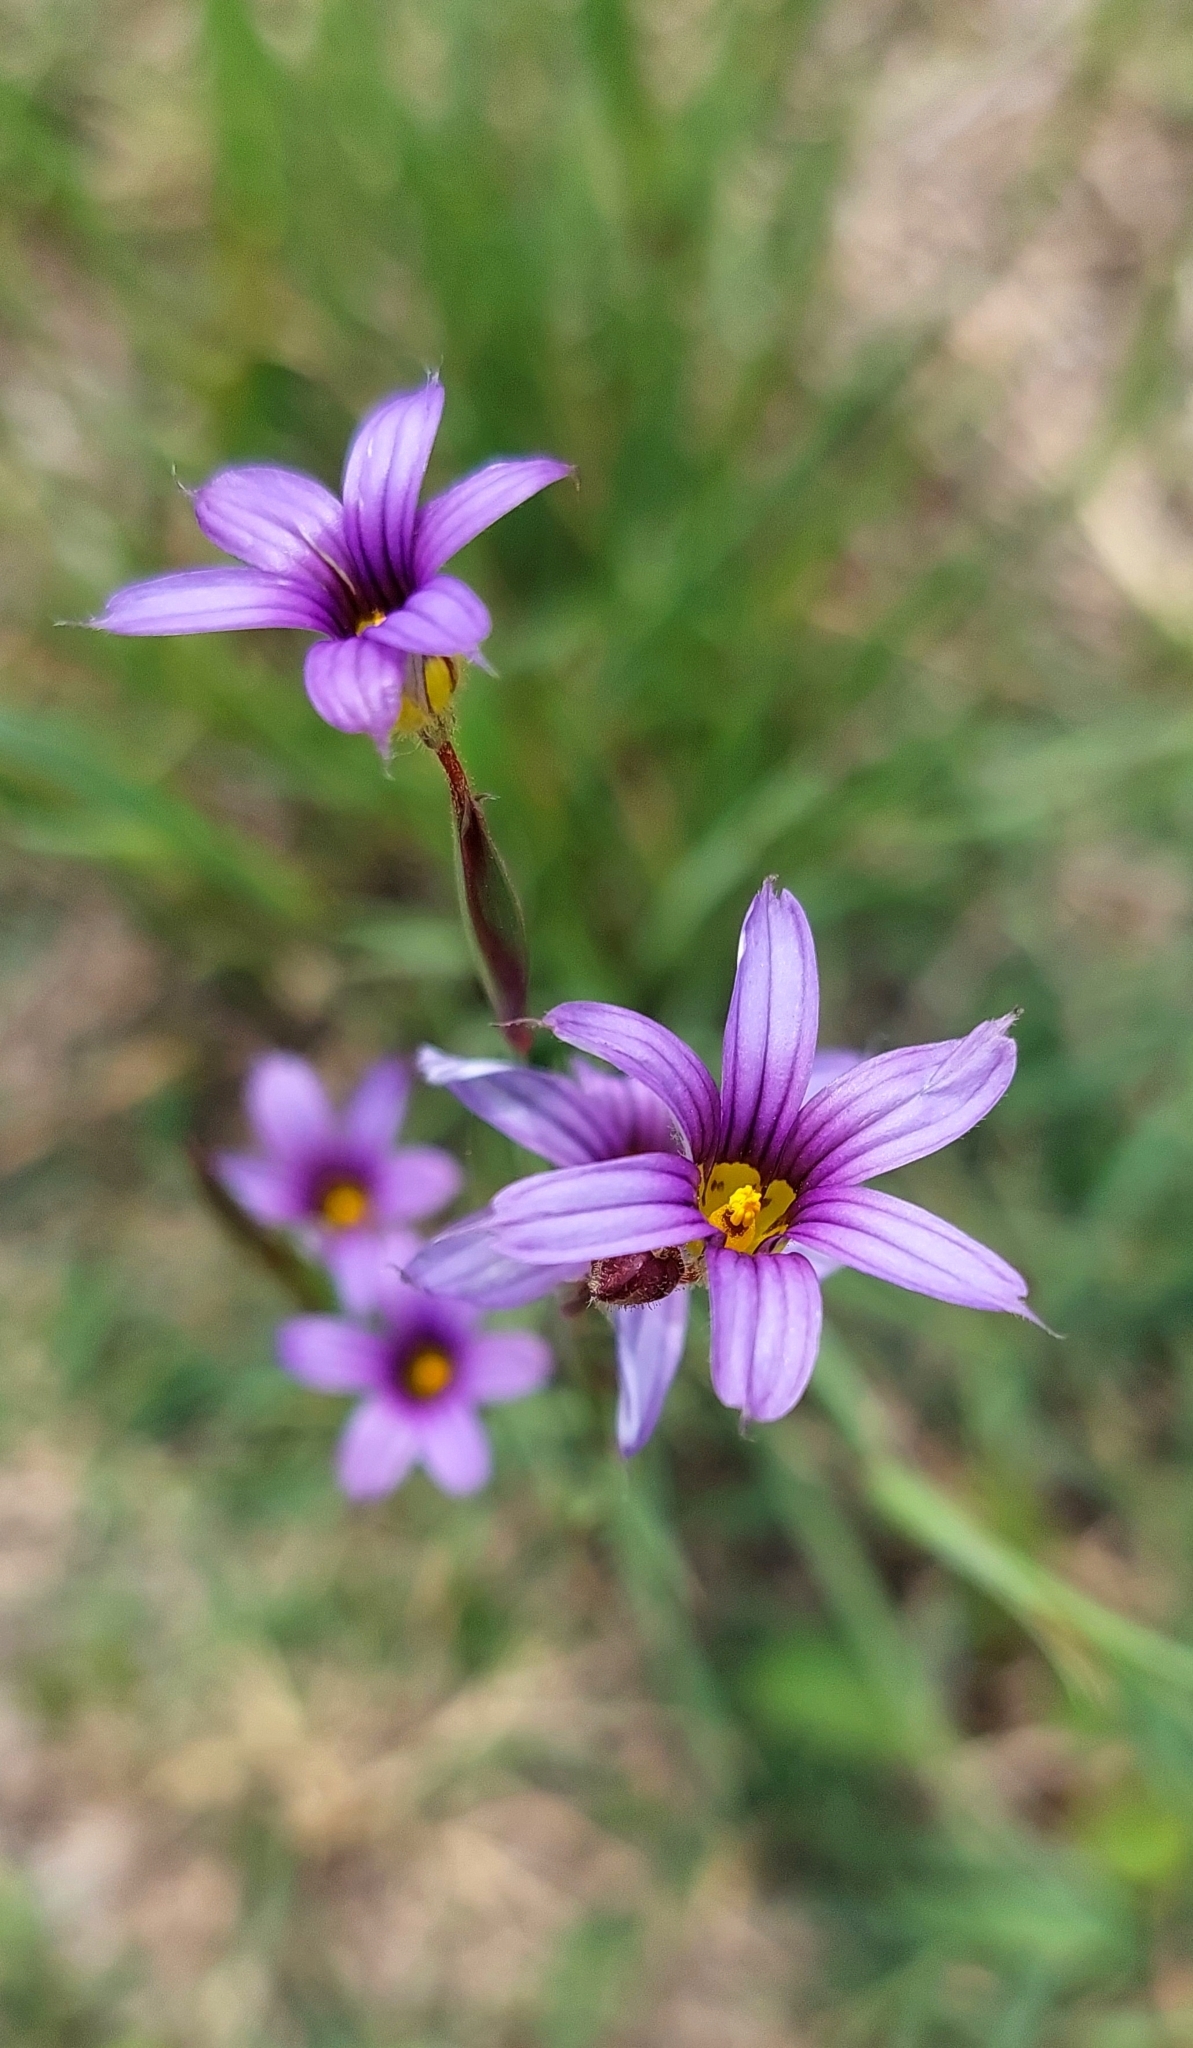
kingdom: Plantae
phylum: Tracheophyta
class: Liliopsida
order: Asparagales
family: Iridaceae
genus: Sisyrinchium
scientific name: Sisyrinchium platense
